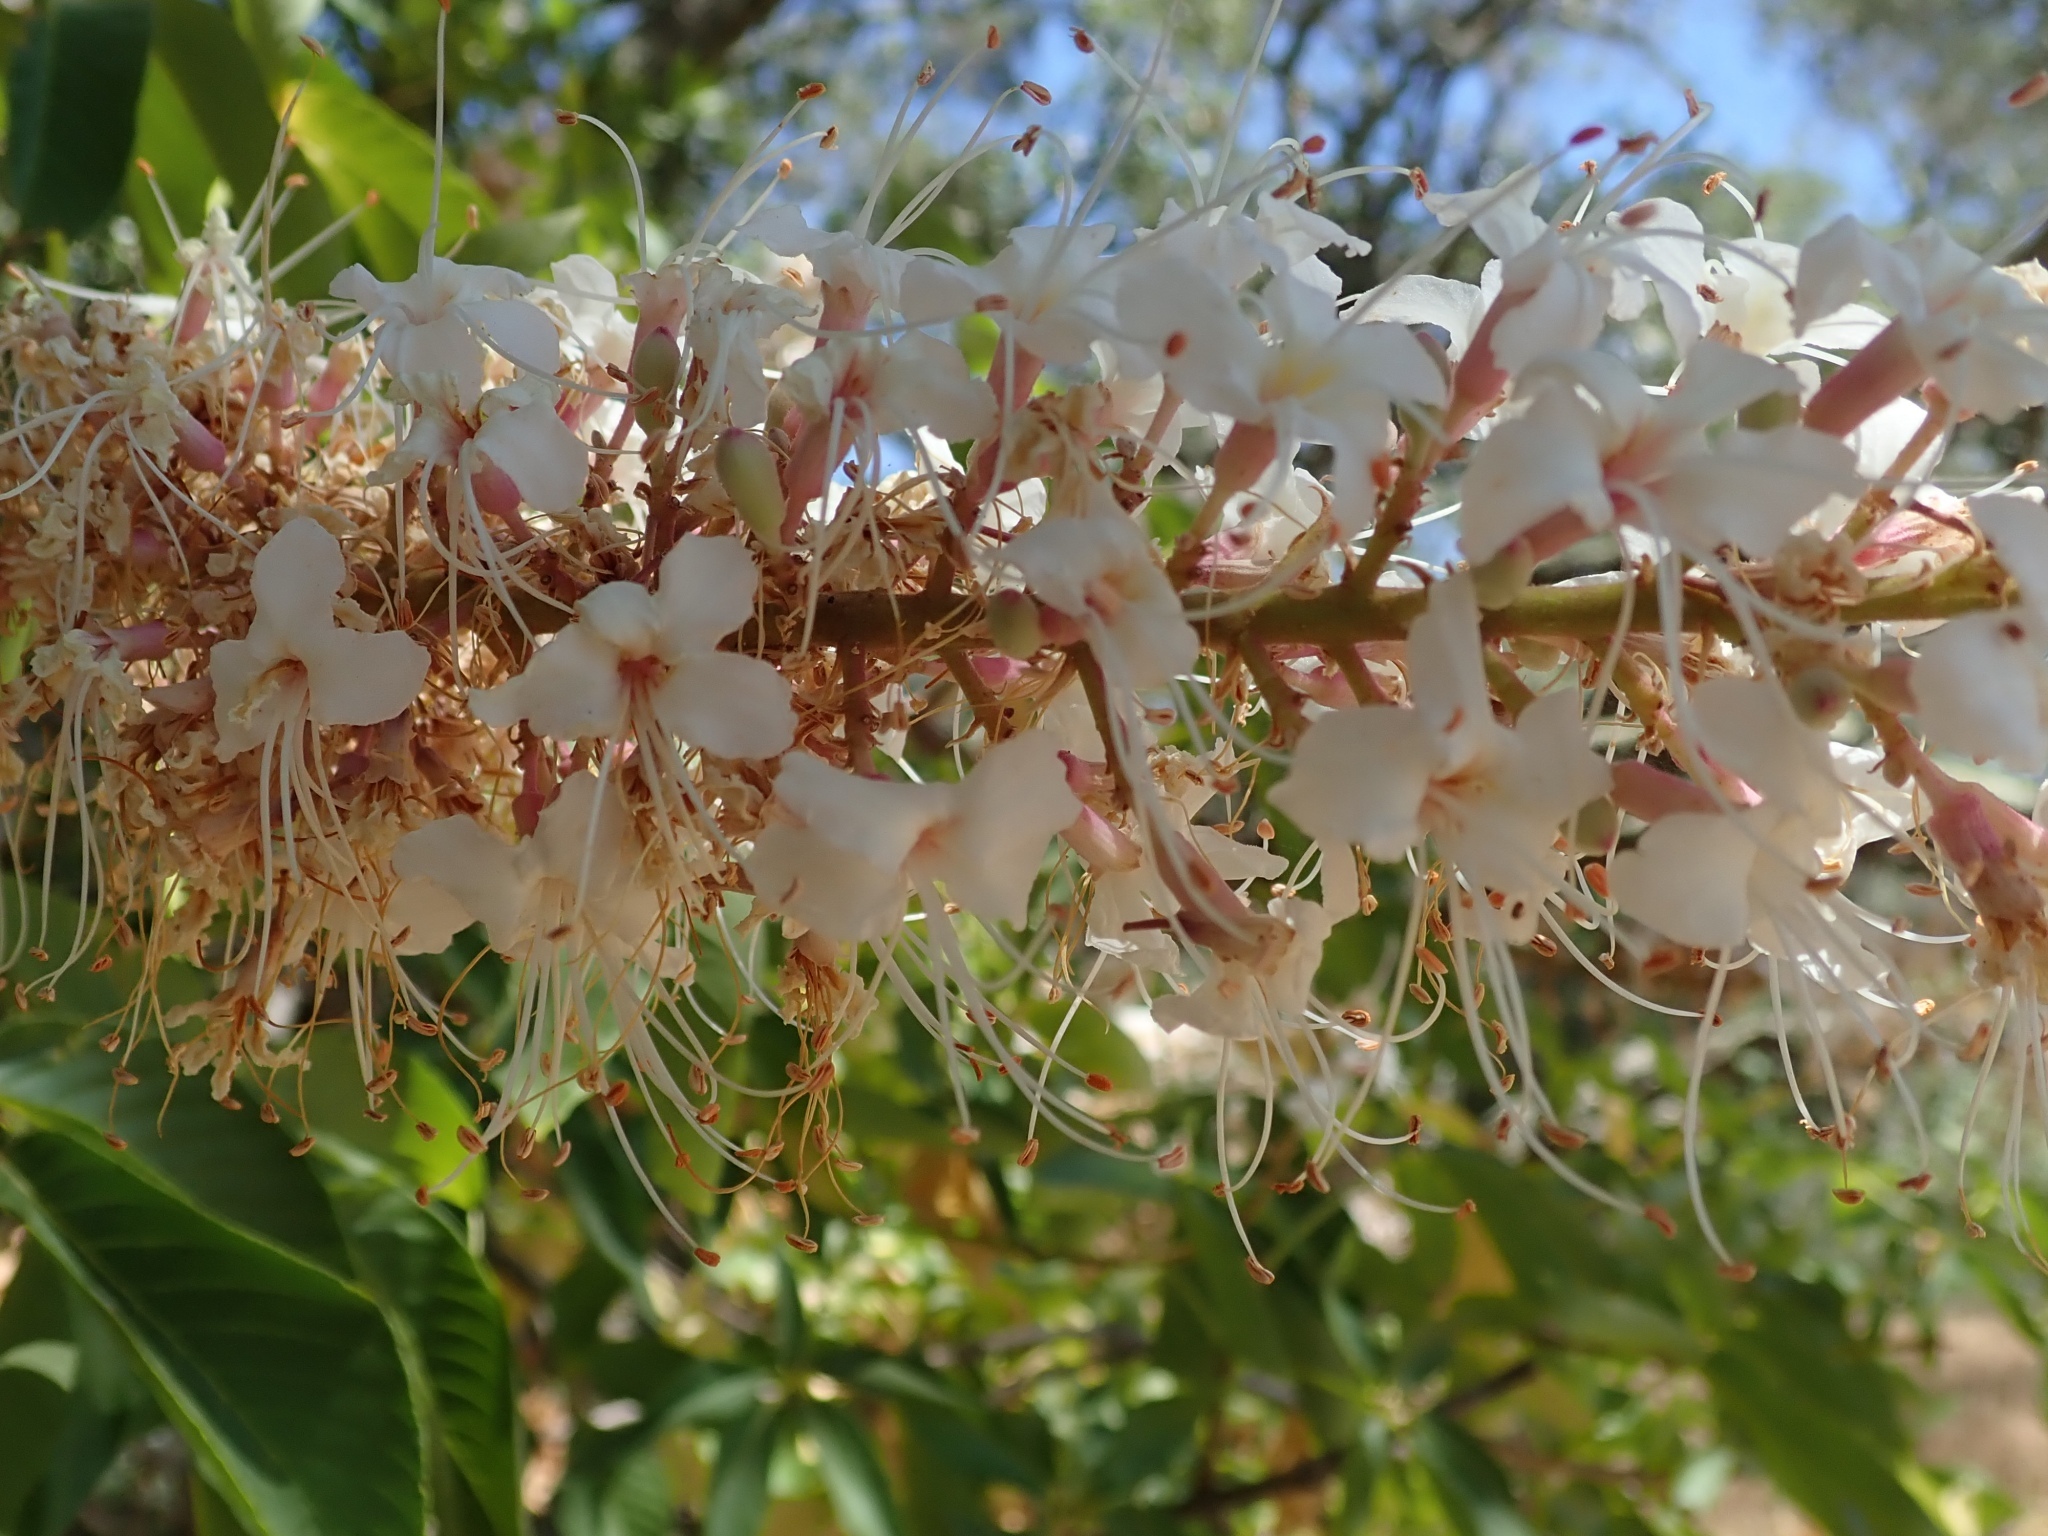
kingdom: Plantae
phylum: Tracheophyta
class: Magnoliopsida
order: Sapindales
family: Sapindaceae
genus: Aesculus
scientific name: Aesculus californica
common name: California buckeye
